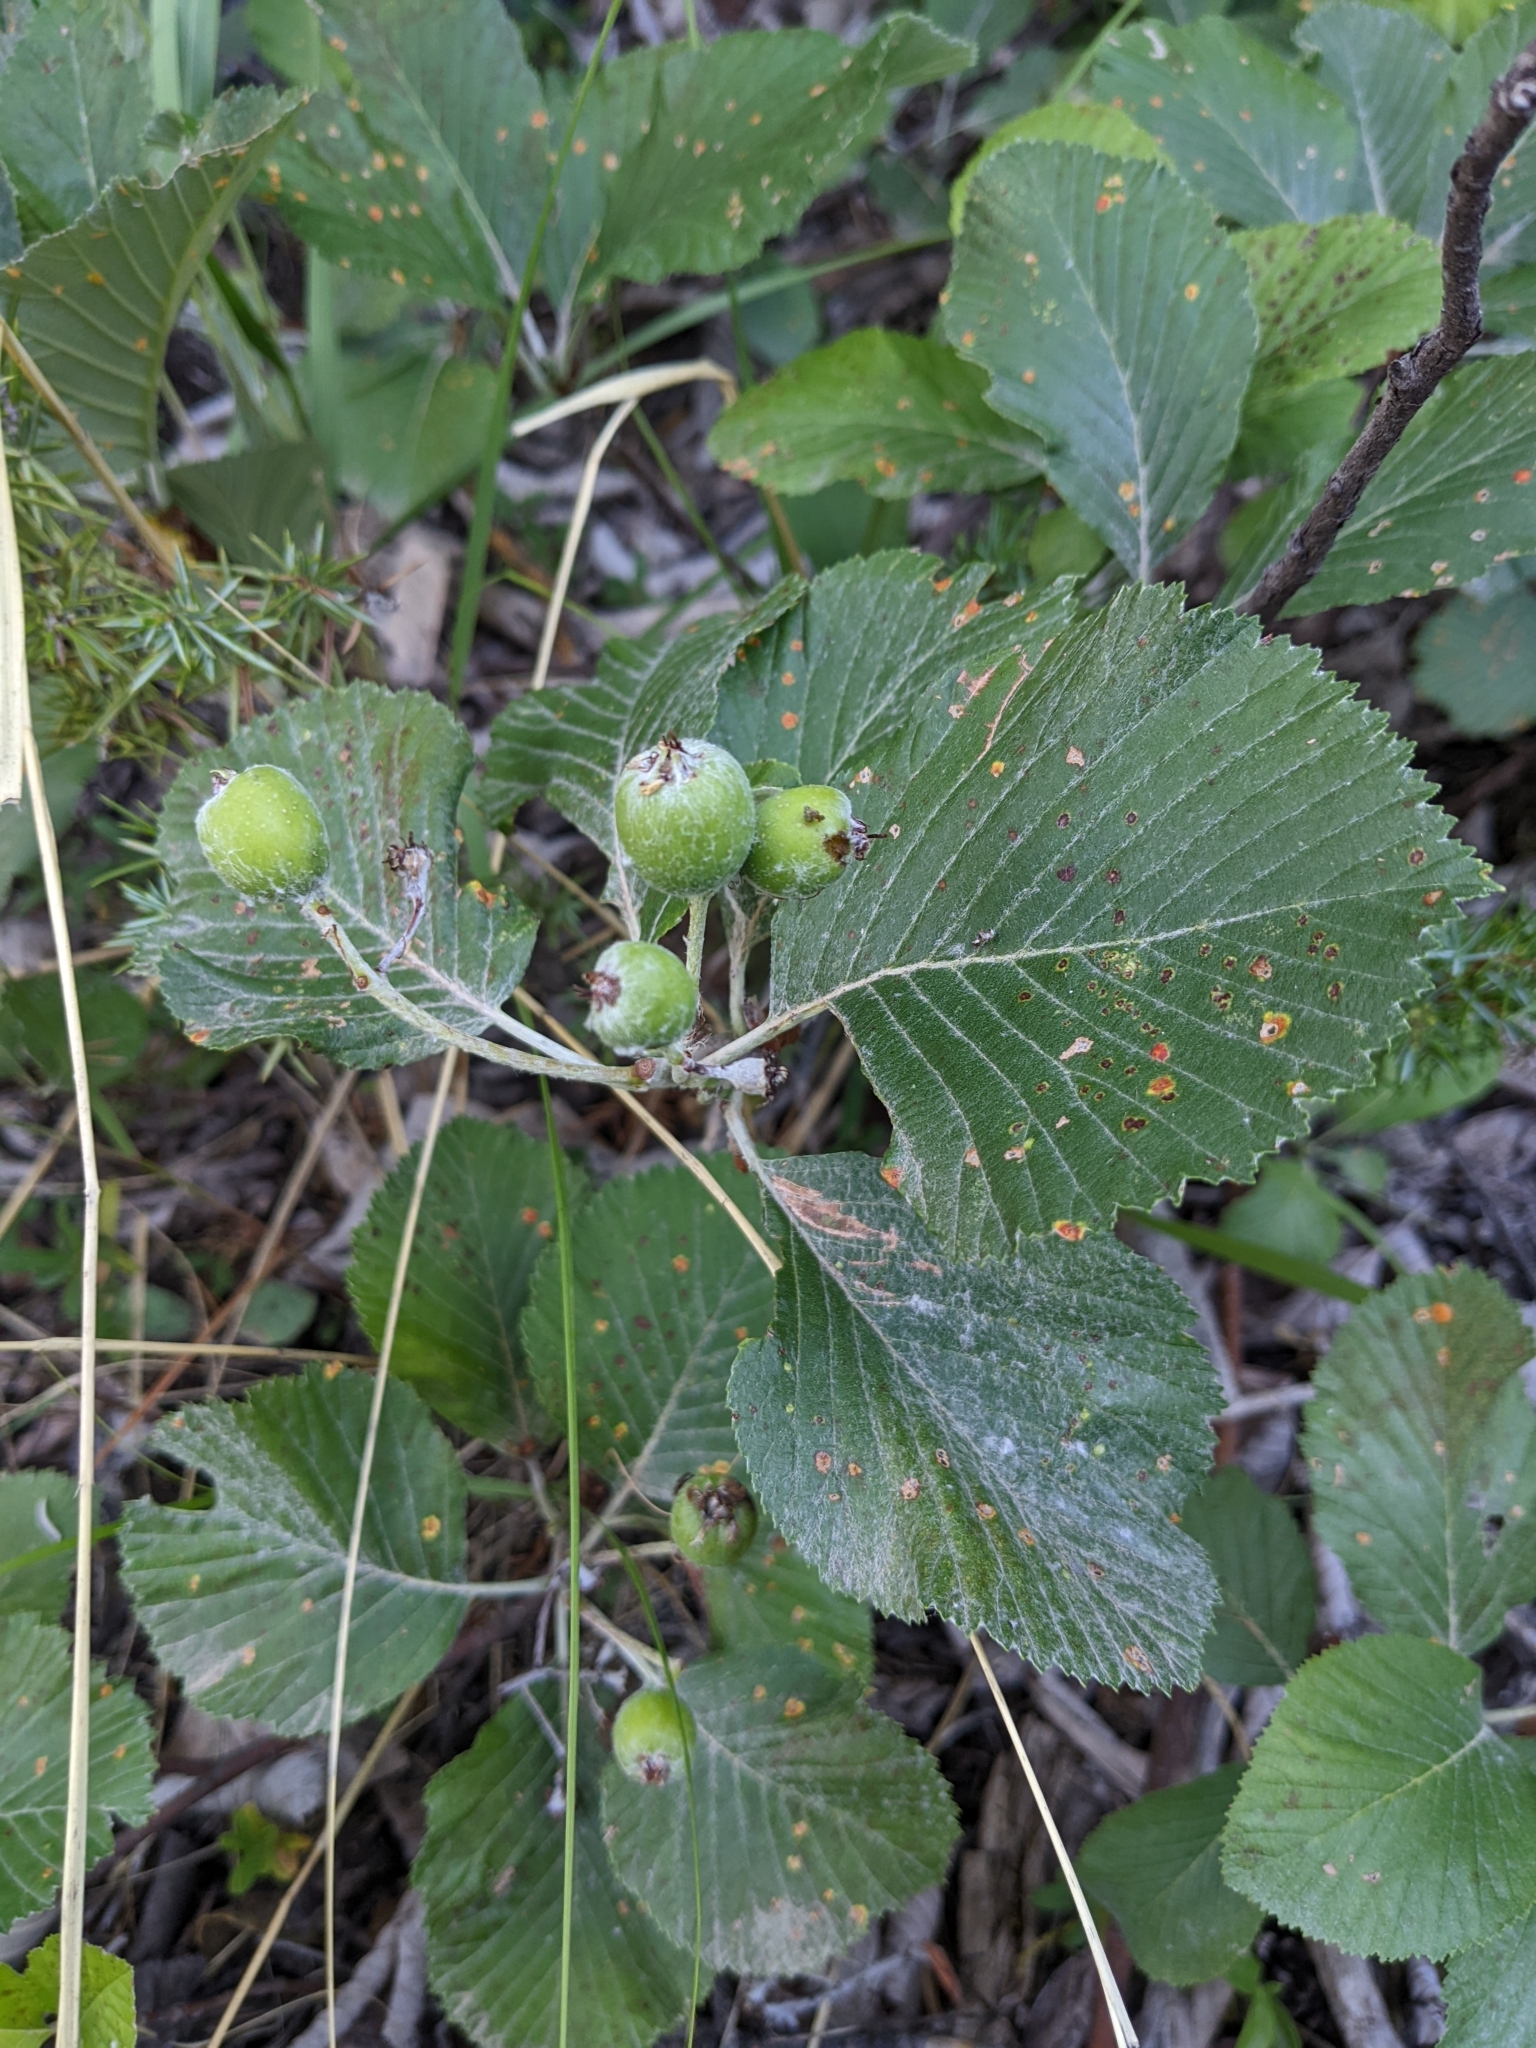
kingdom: Plantae
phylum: Tracheophyta
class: Magnoliopsida
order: Rosales
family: Rosaceae
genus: Aria
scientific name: Aria edulis
